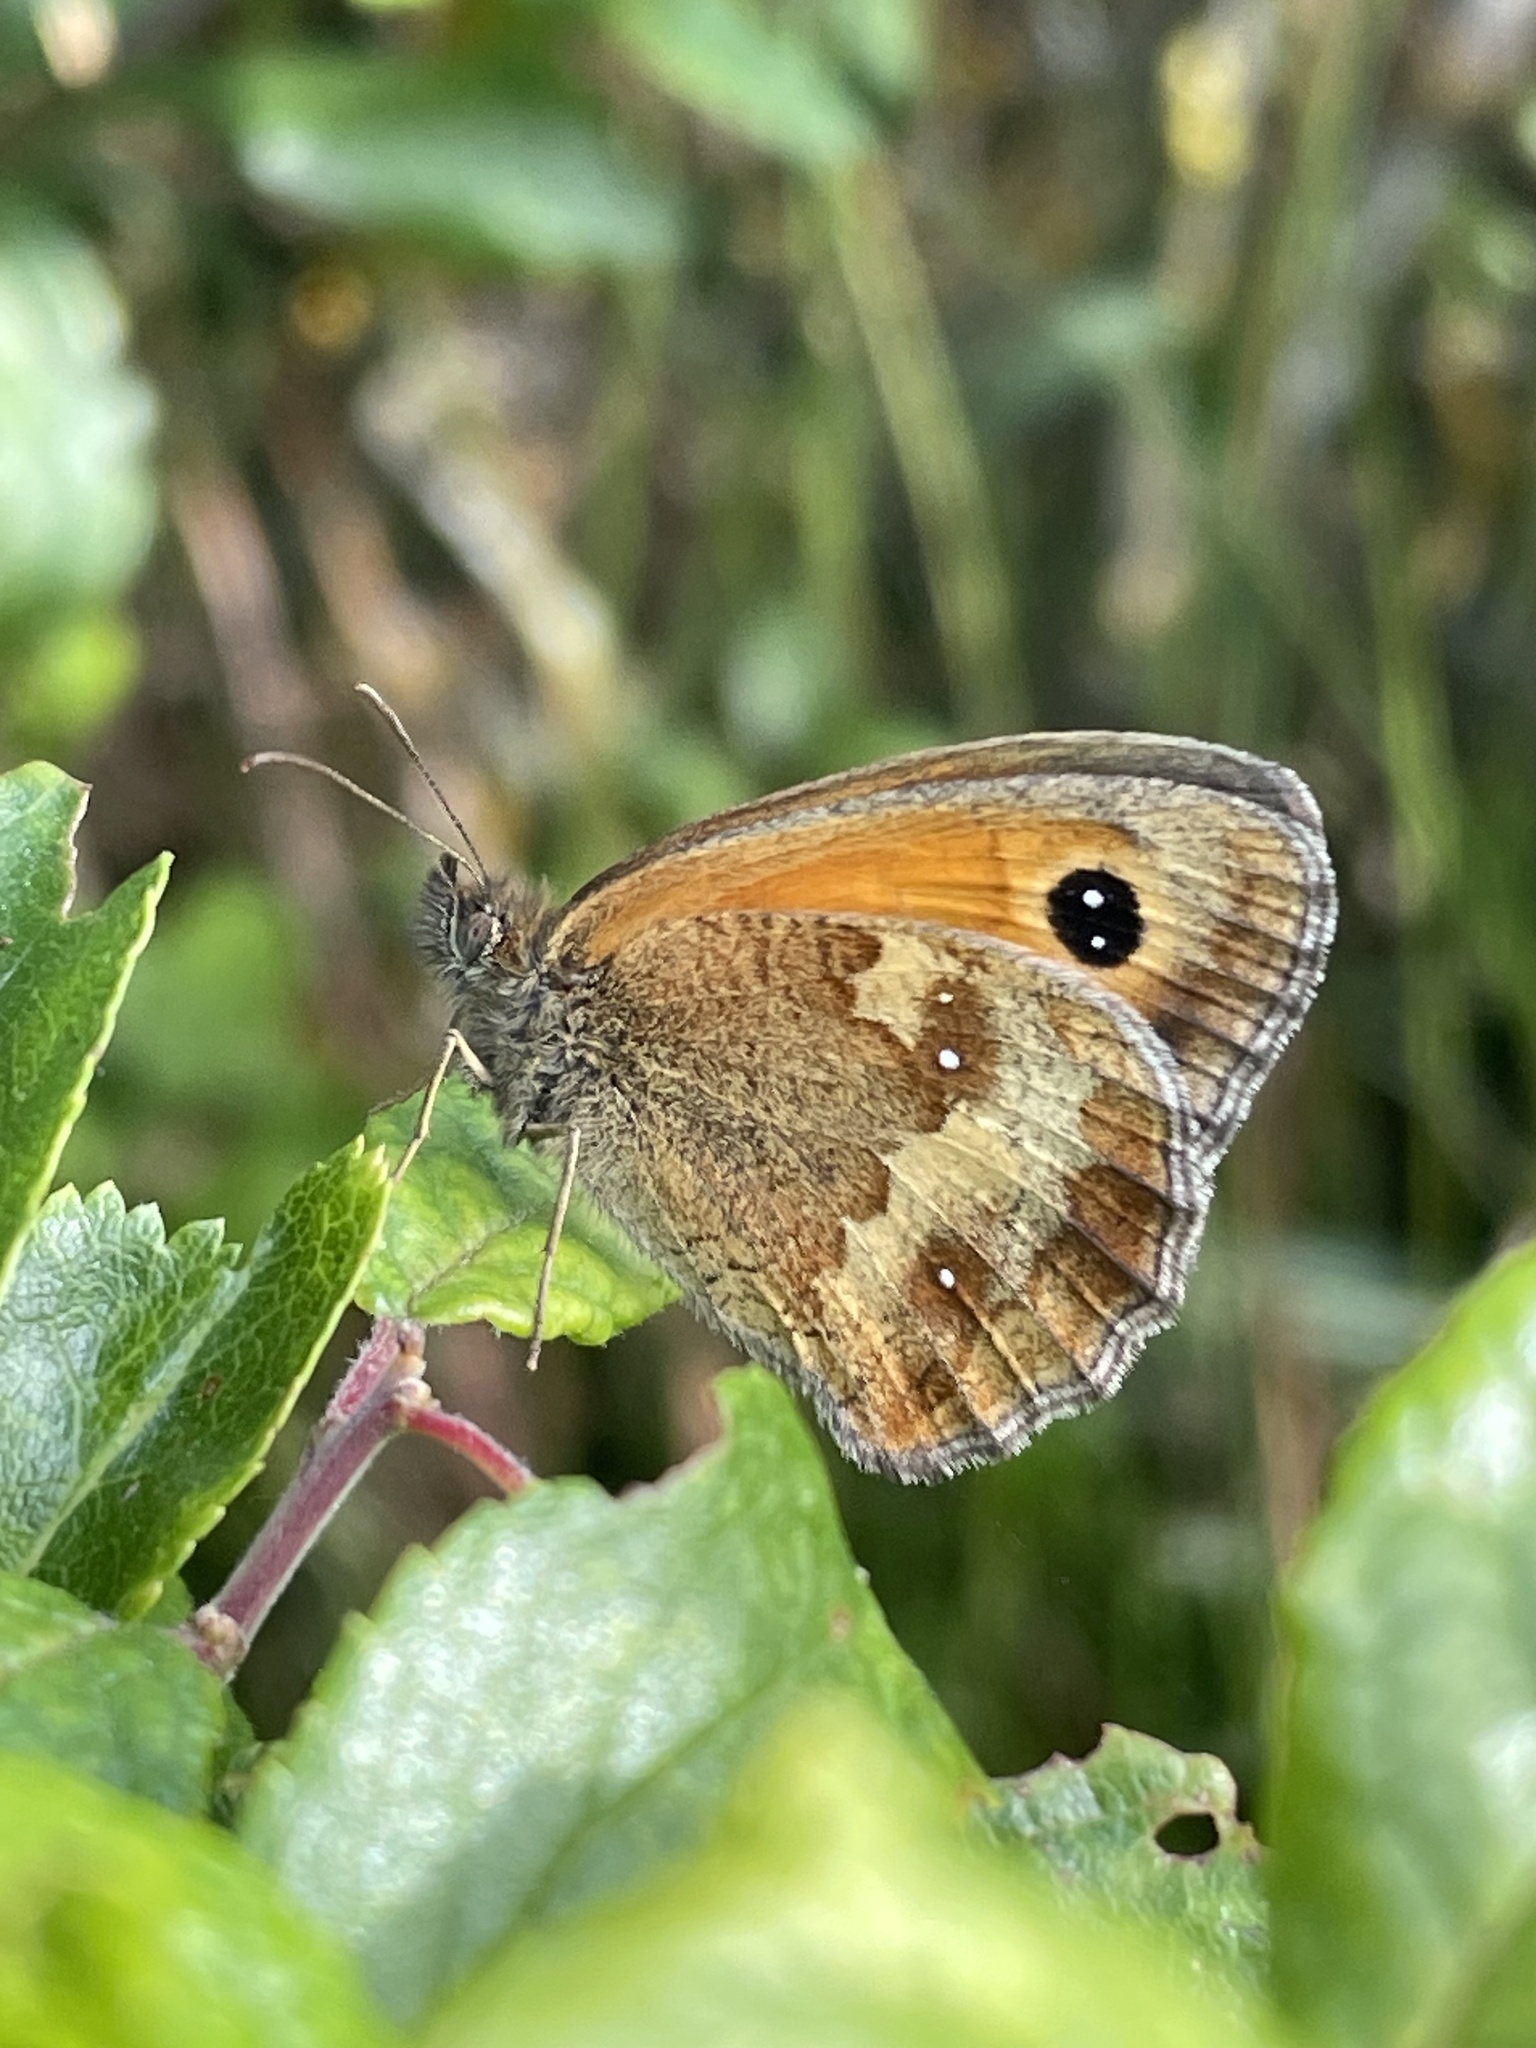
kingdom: Animalia
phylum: Arthropoda
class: Insecta
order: Lepidoptera
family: Nymphalidae
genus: Pyronia
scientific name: Pyronia tithonus
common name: Gatekeeper
